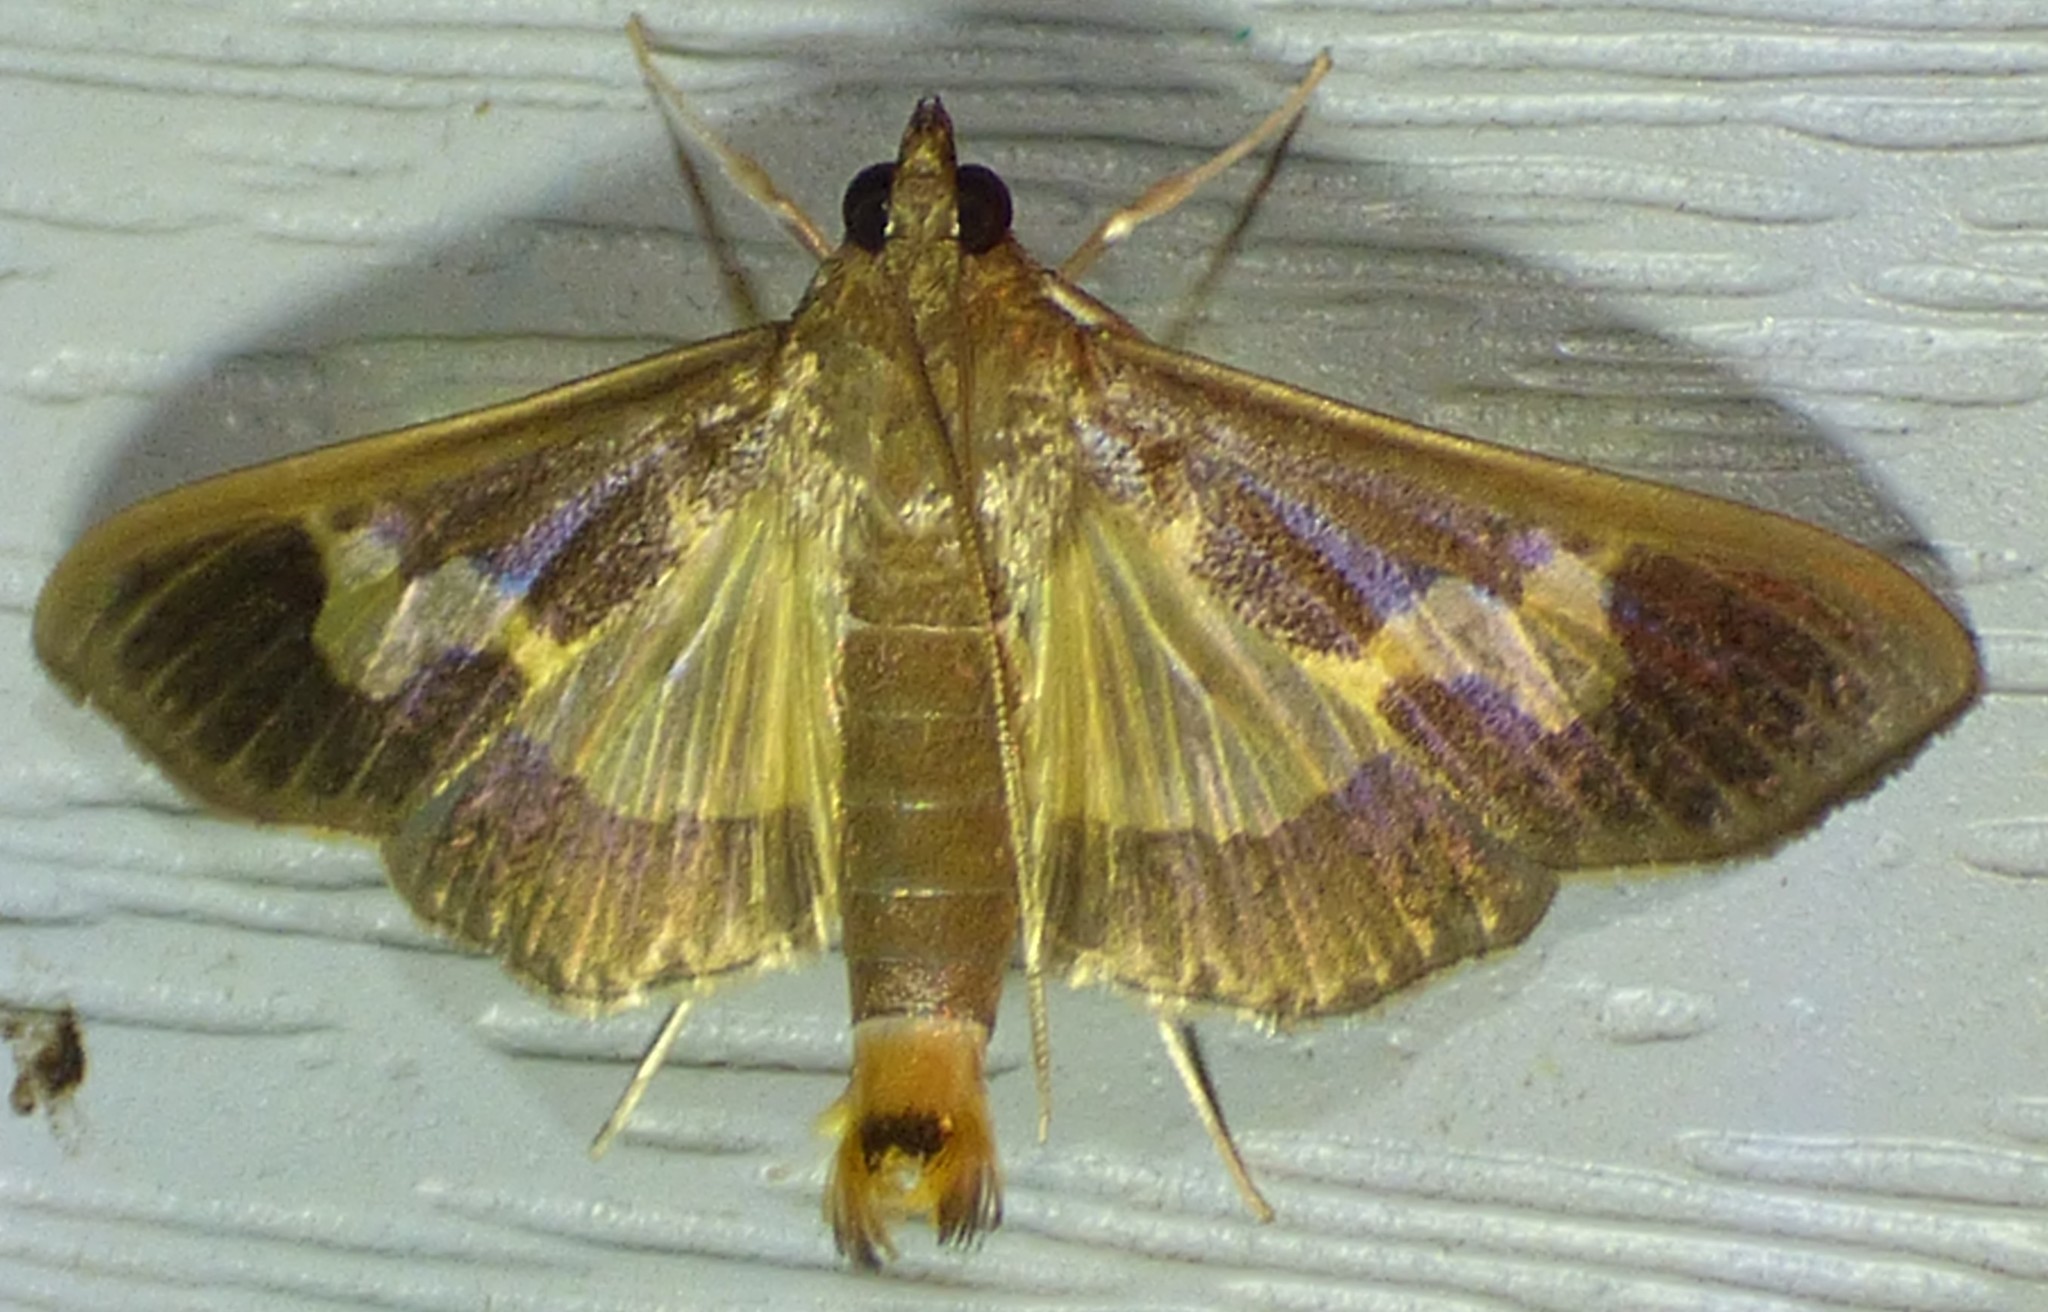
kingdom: Animalia
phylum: Arthropoda
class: Insecta
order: Lepidoptera
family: Crambidae
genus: Cryptographis
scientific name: Cryptographis nitidalis
